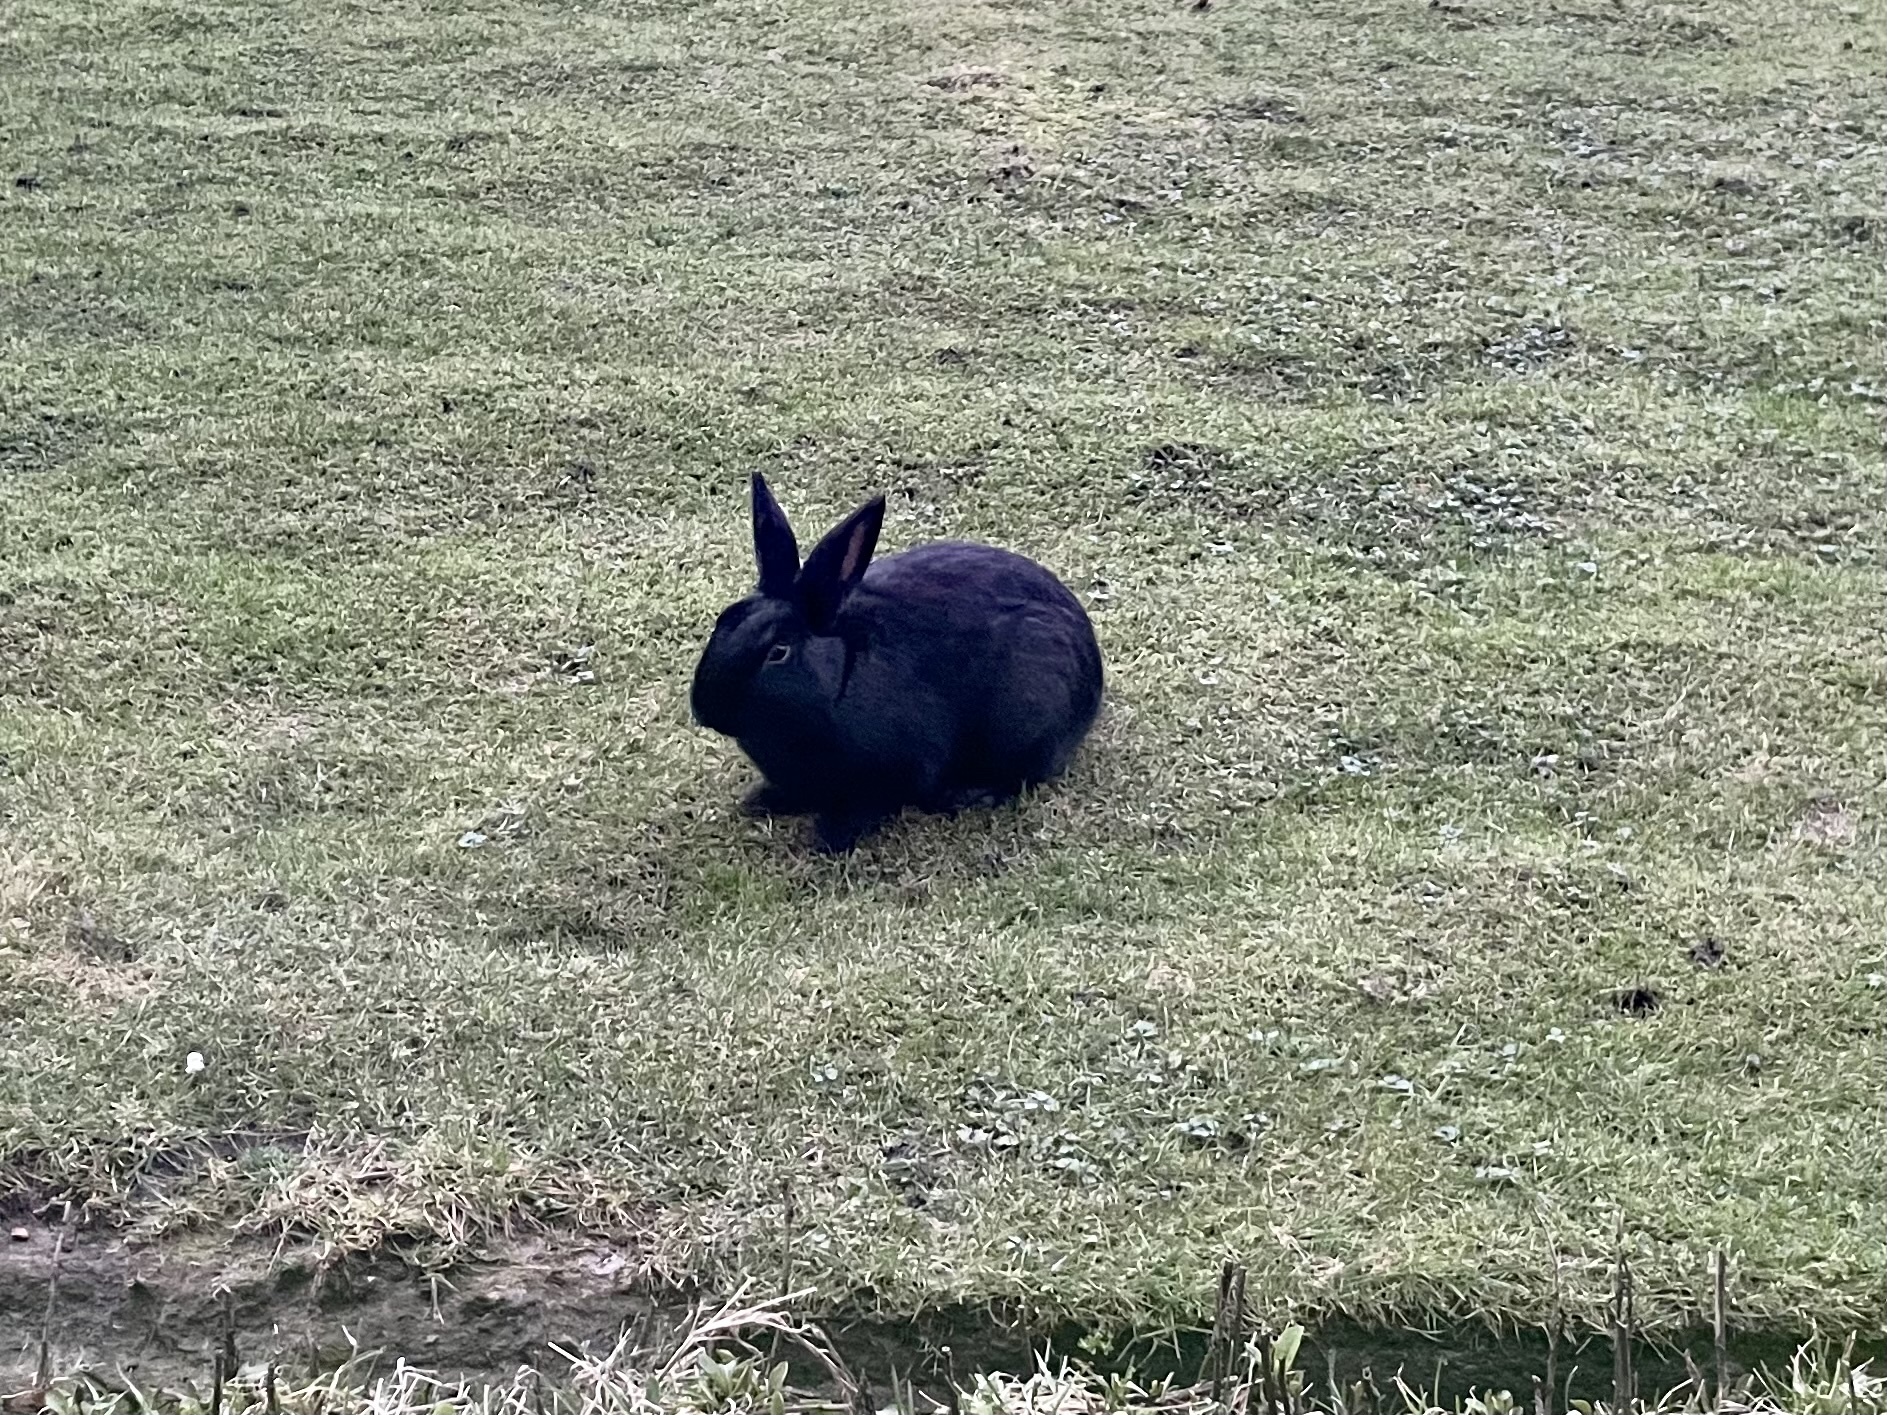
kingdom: Animalia
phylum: Chordata
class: Mammalia
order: Lagomorpha
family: Leporidae
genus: Oryctolagus
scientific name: Oryctolagus cuniculus
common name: European rabbit
